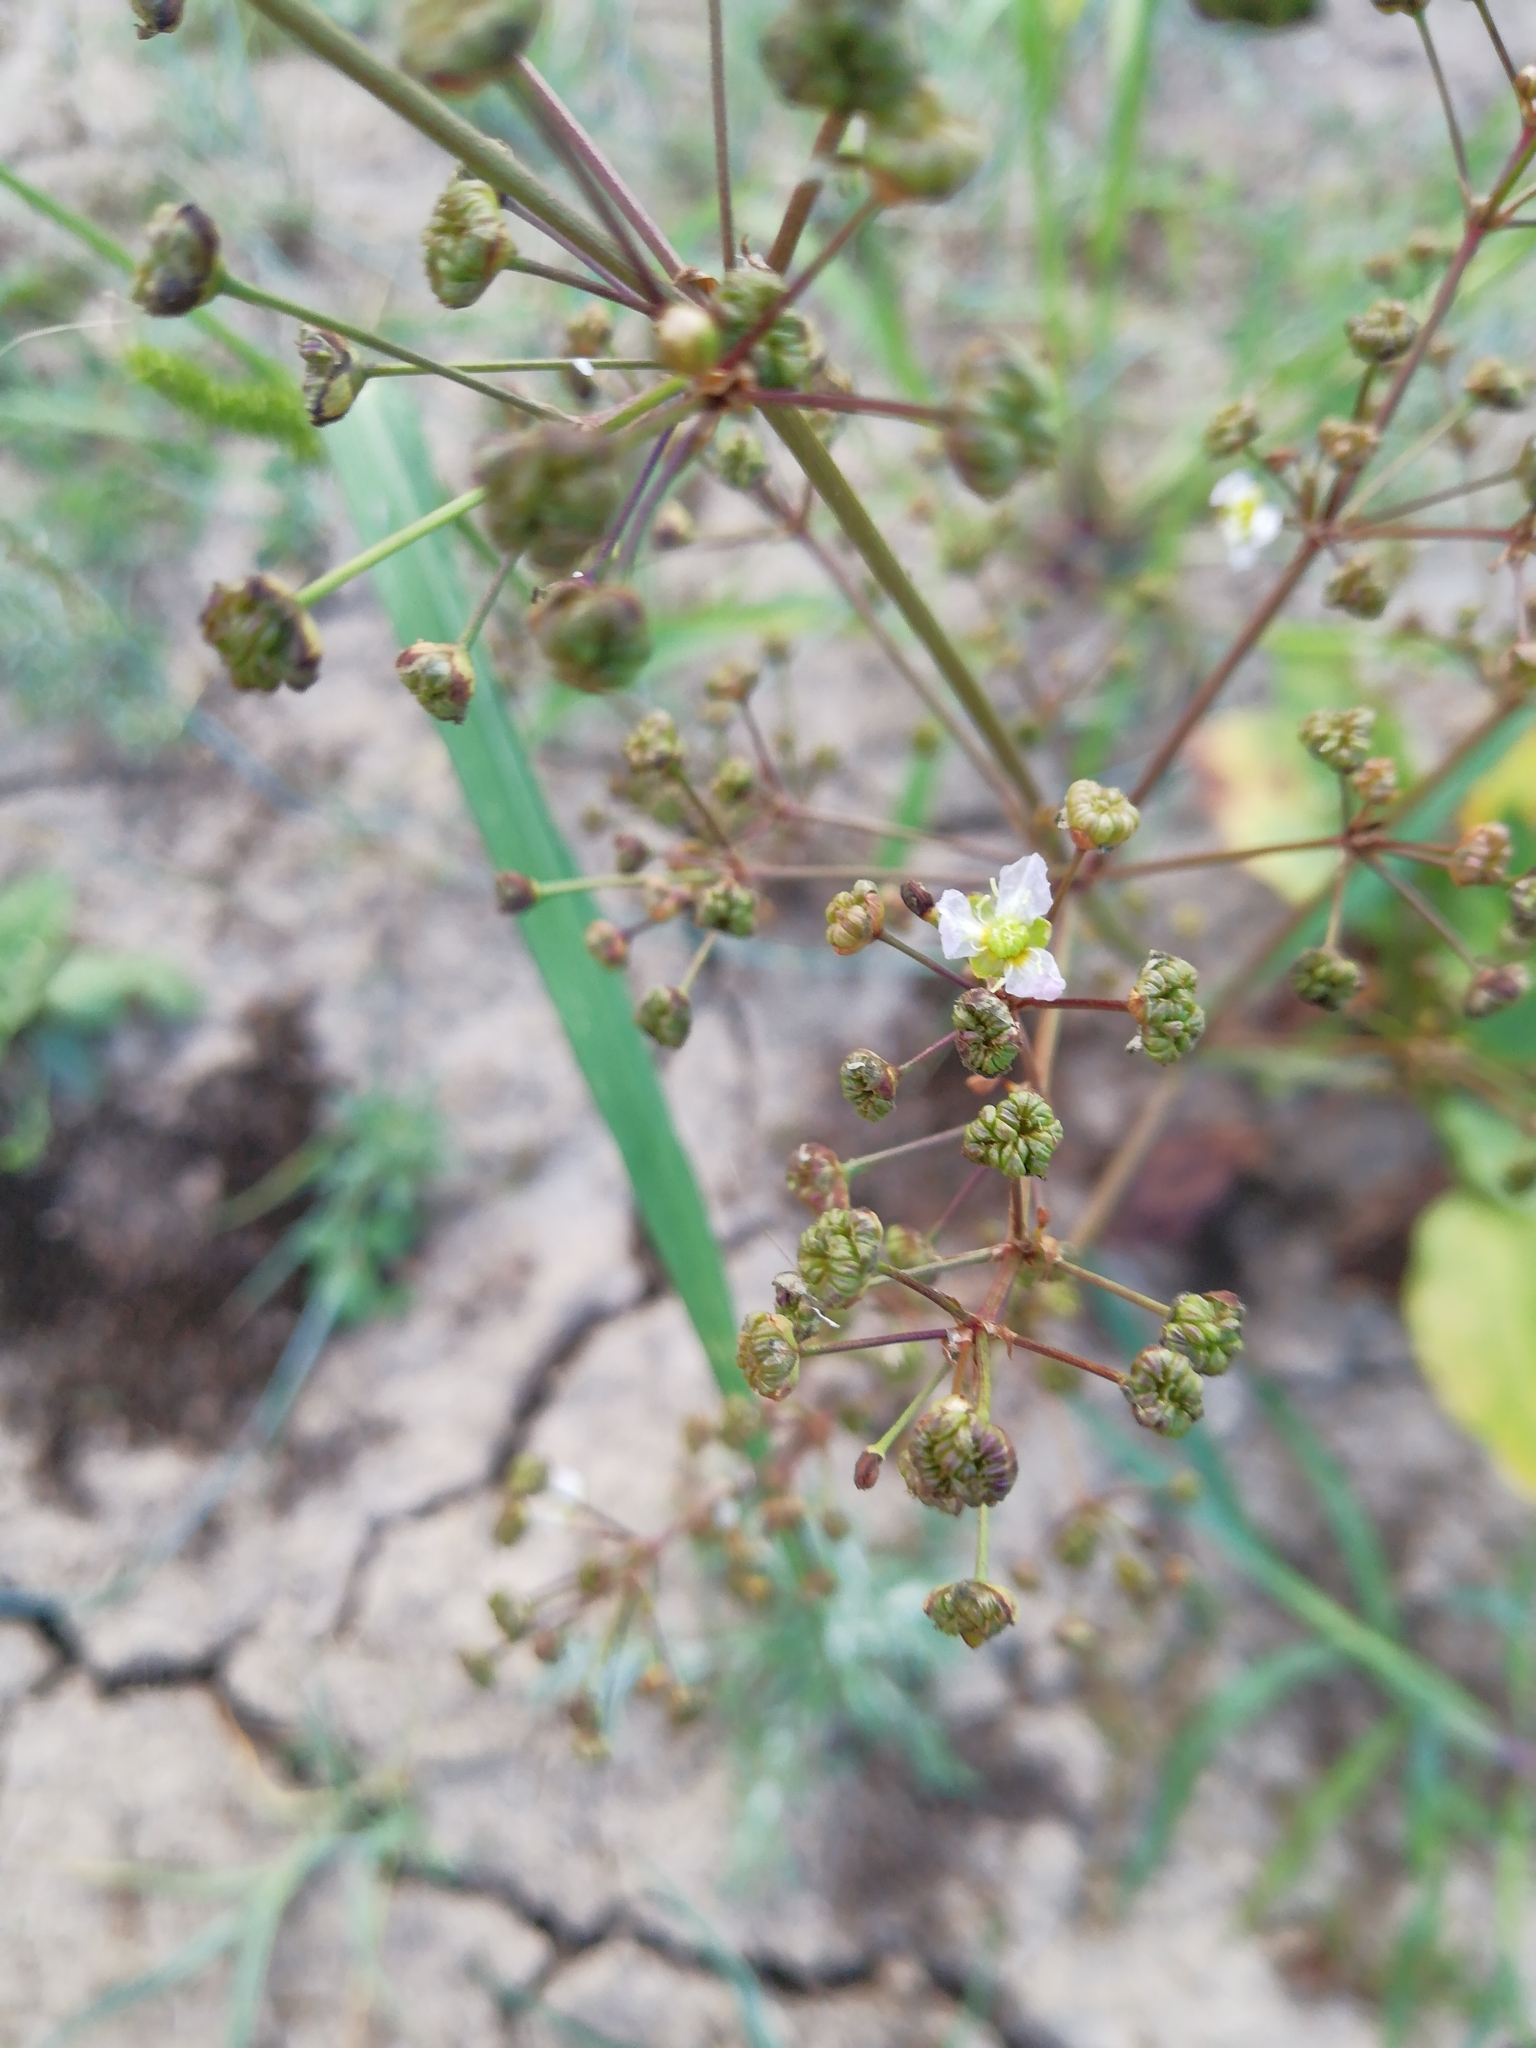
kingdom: Plantae
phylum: Tracheophyta
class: Liliopsida
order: Alismatales
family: Alismataceae
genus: Alisma
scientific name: Alisma plantago-aquatica
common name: Water-plantain
